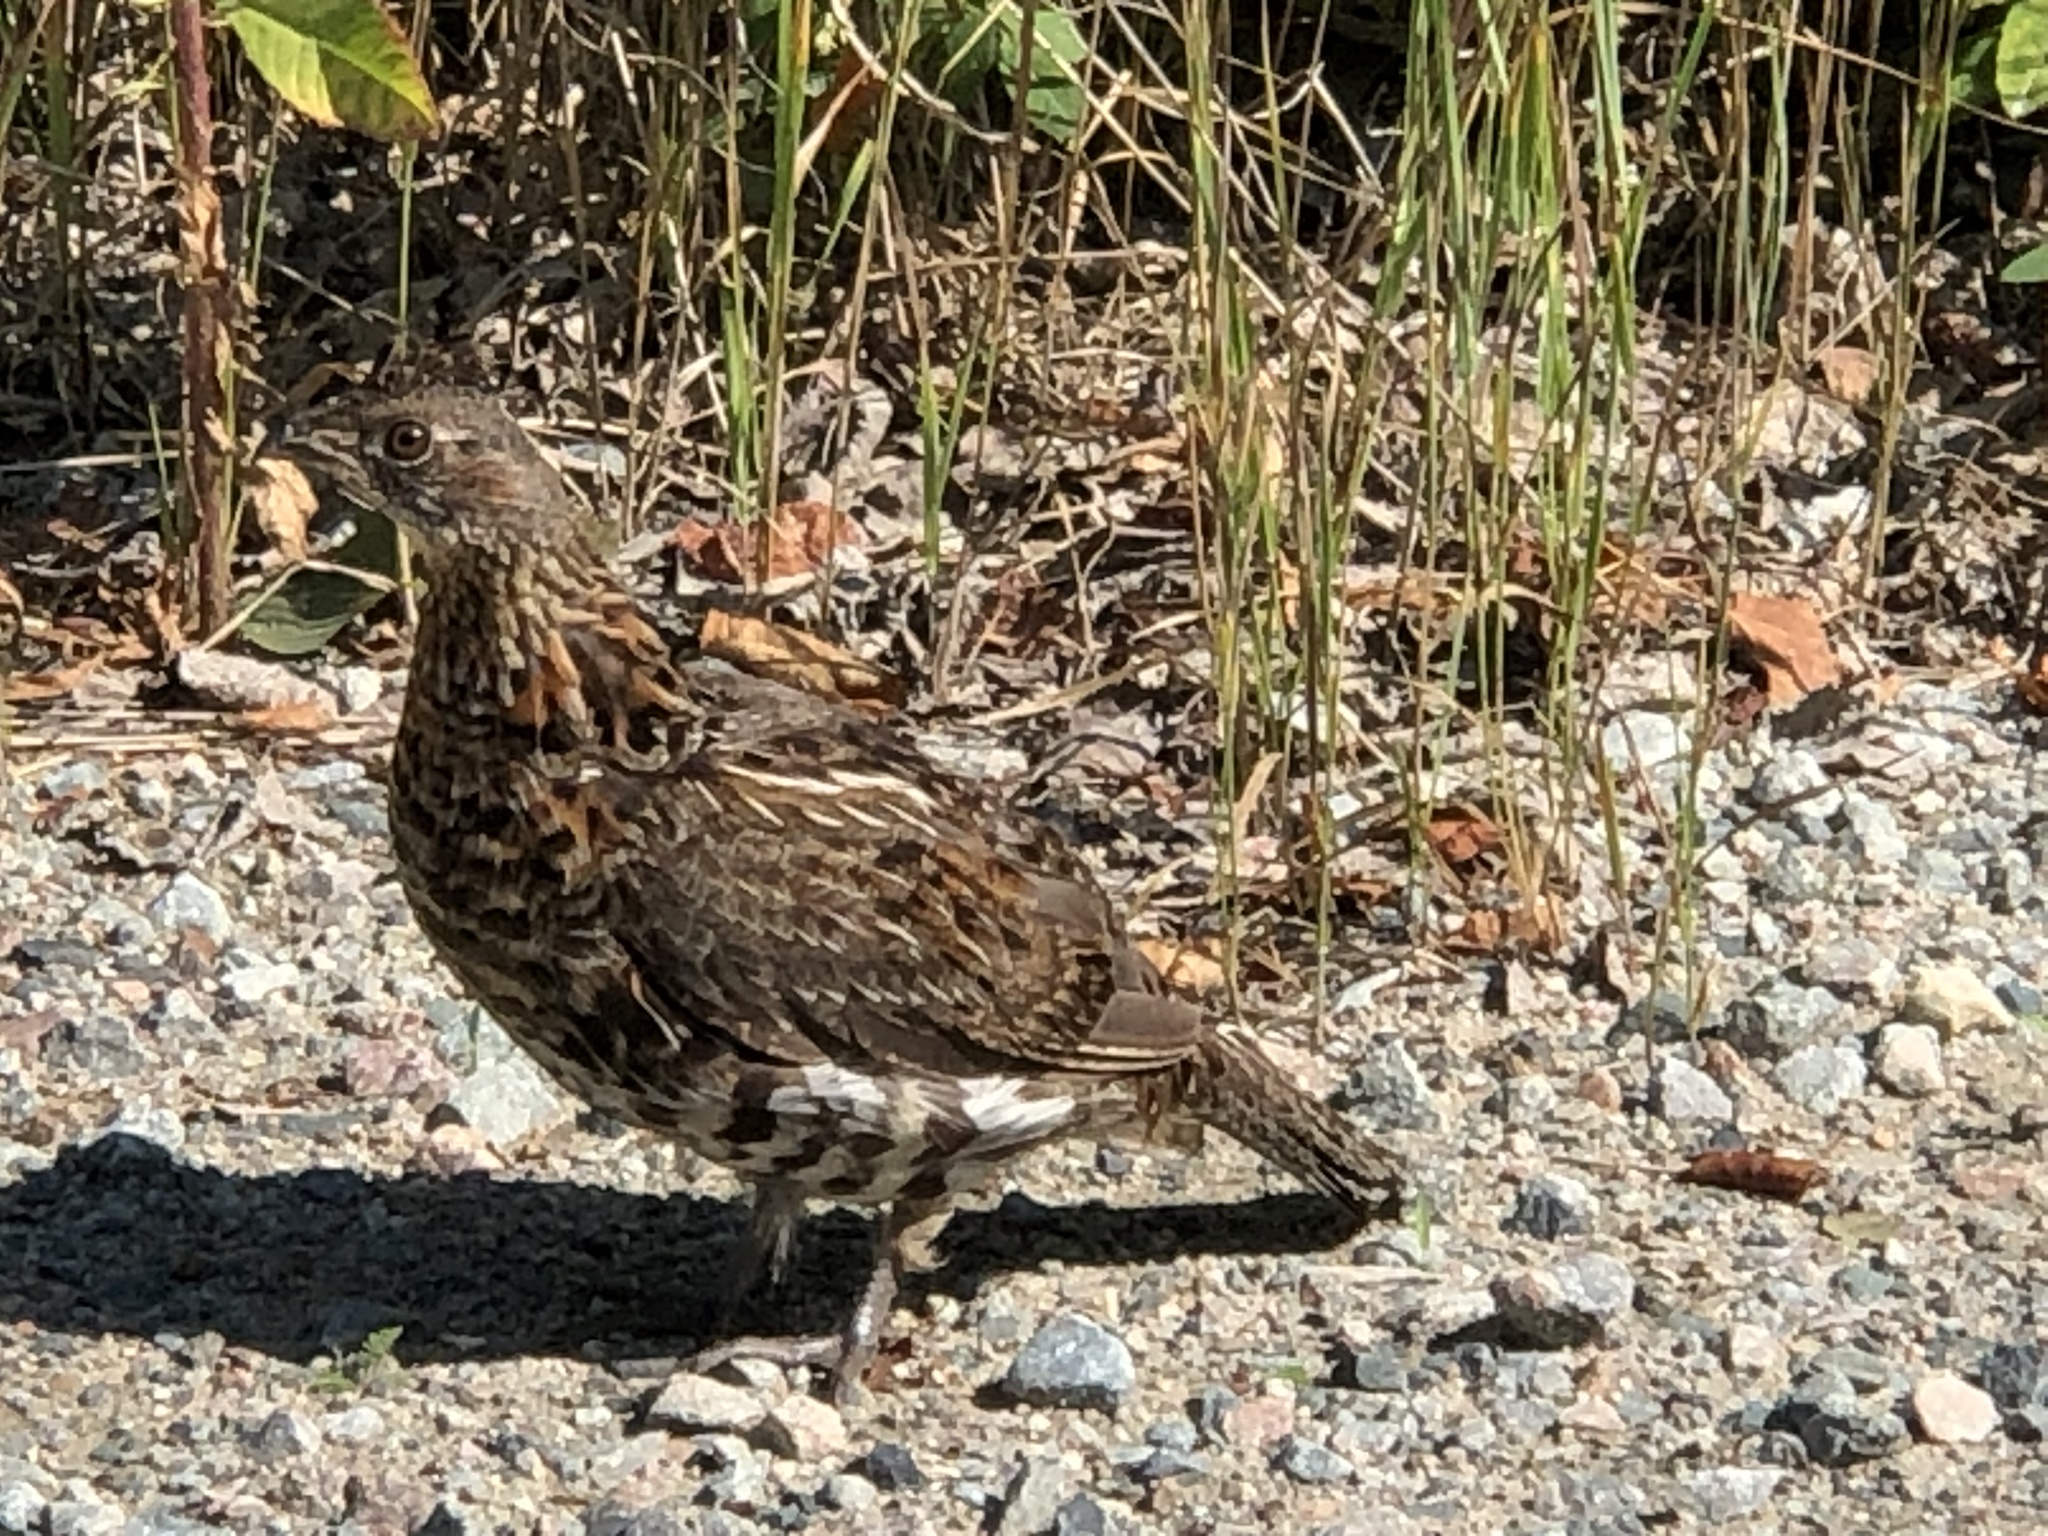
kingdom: Animalia
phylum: Chordata
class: Aves
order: Galliformes
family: Phasianidae
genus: Bonasa
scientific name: Bonasa umbellus
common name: Ruffed grouse
